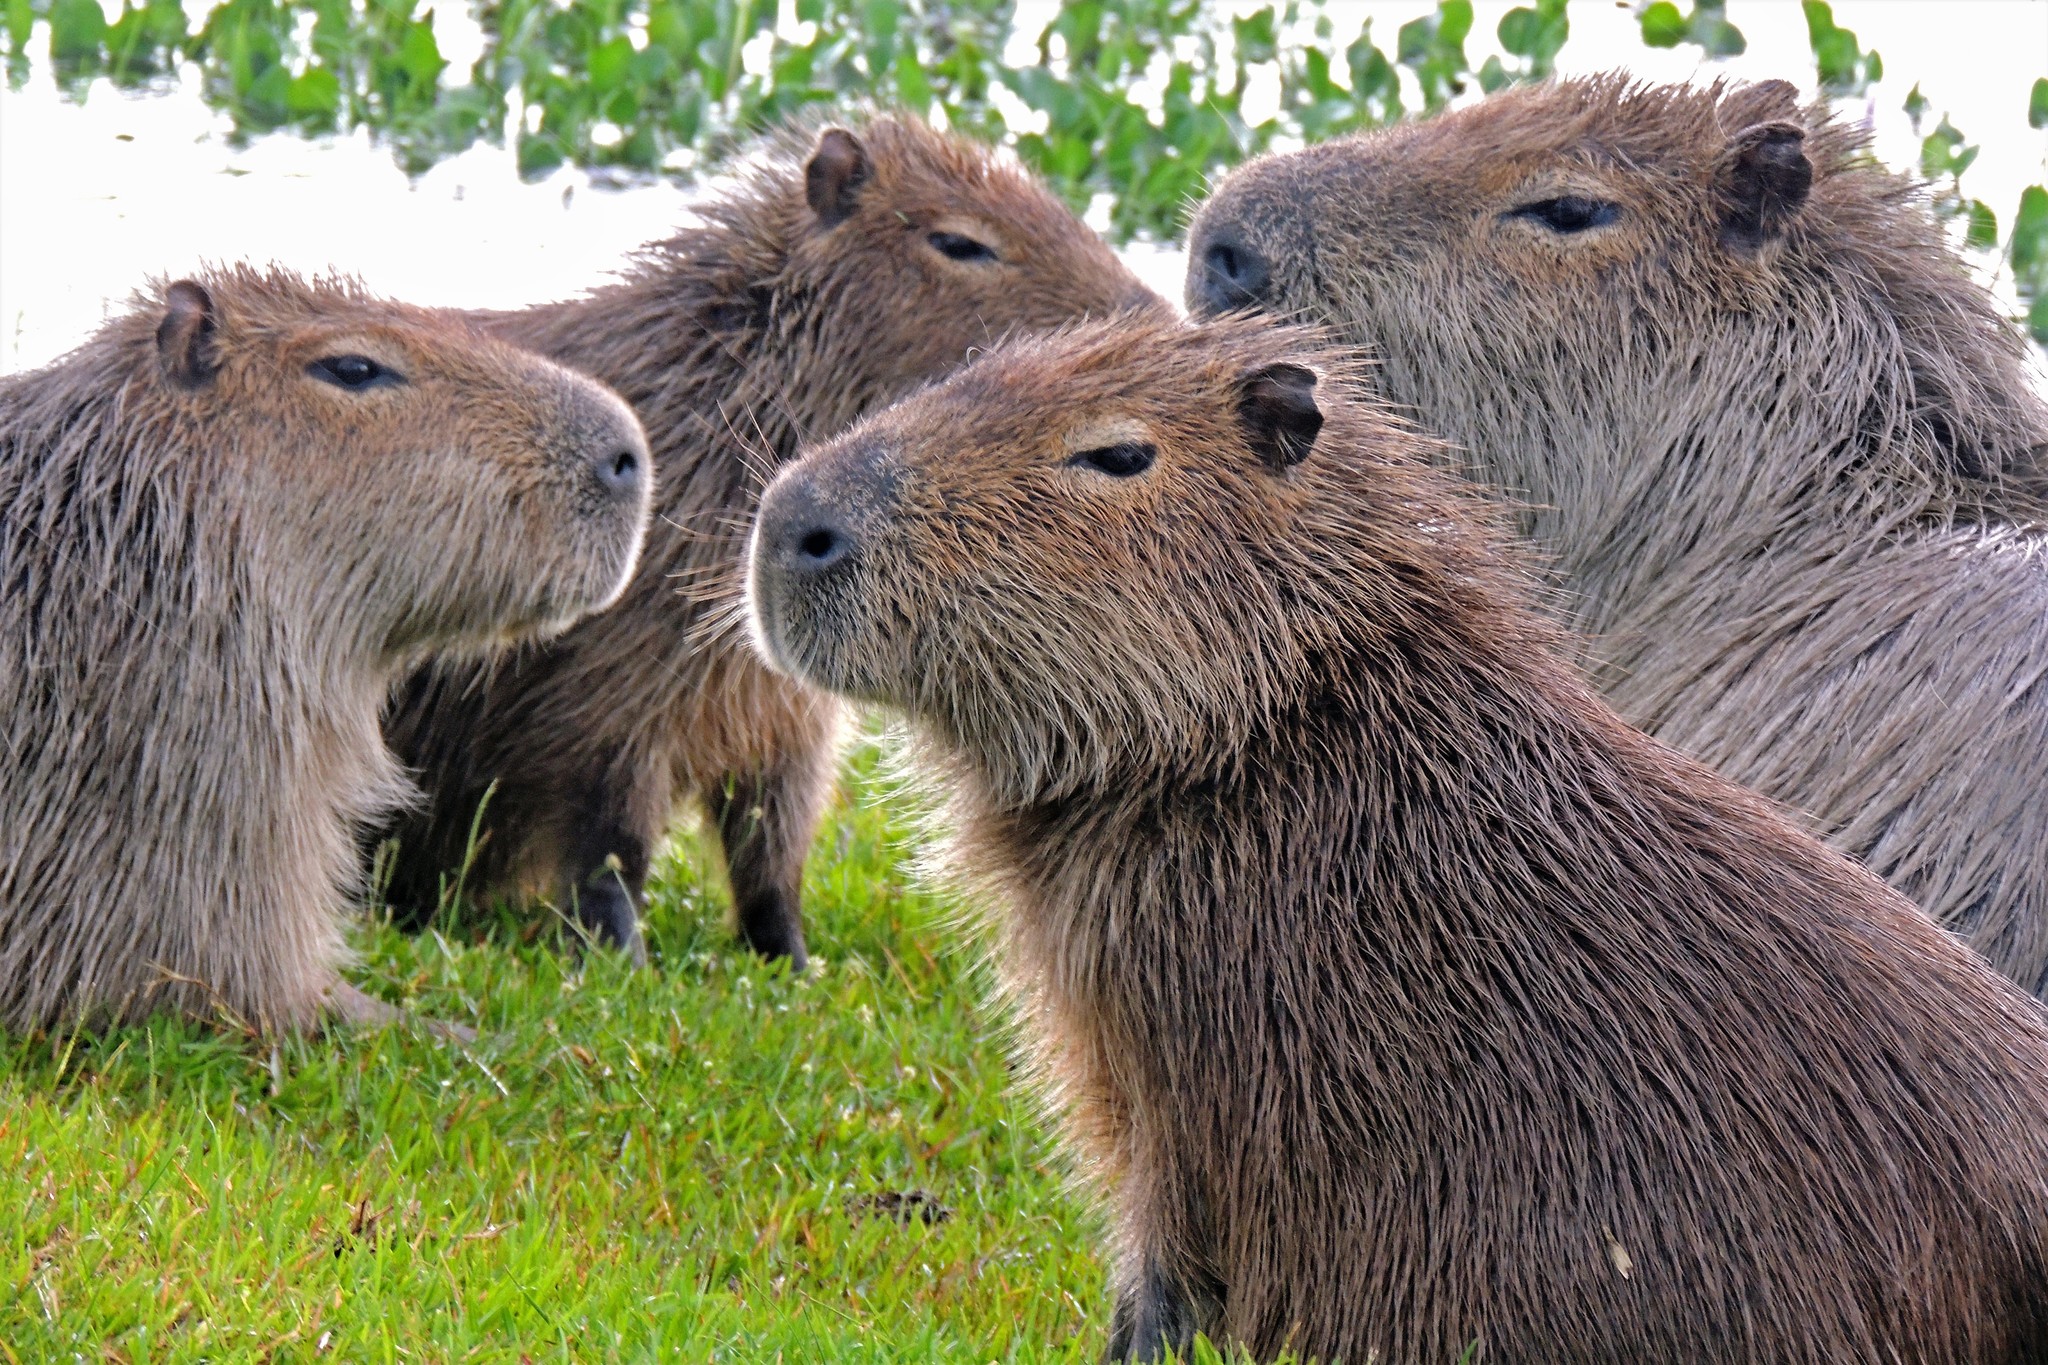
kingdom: Animalia
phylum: Chordata
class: Mammalia
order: Rodentia
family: Caviidae
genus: Hydrochoerus
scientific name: Hydrochoerus hydrochaeris
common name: Capybara
